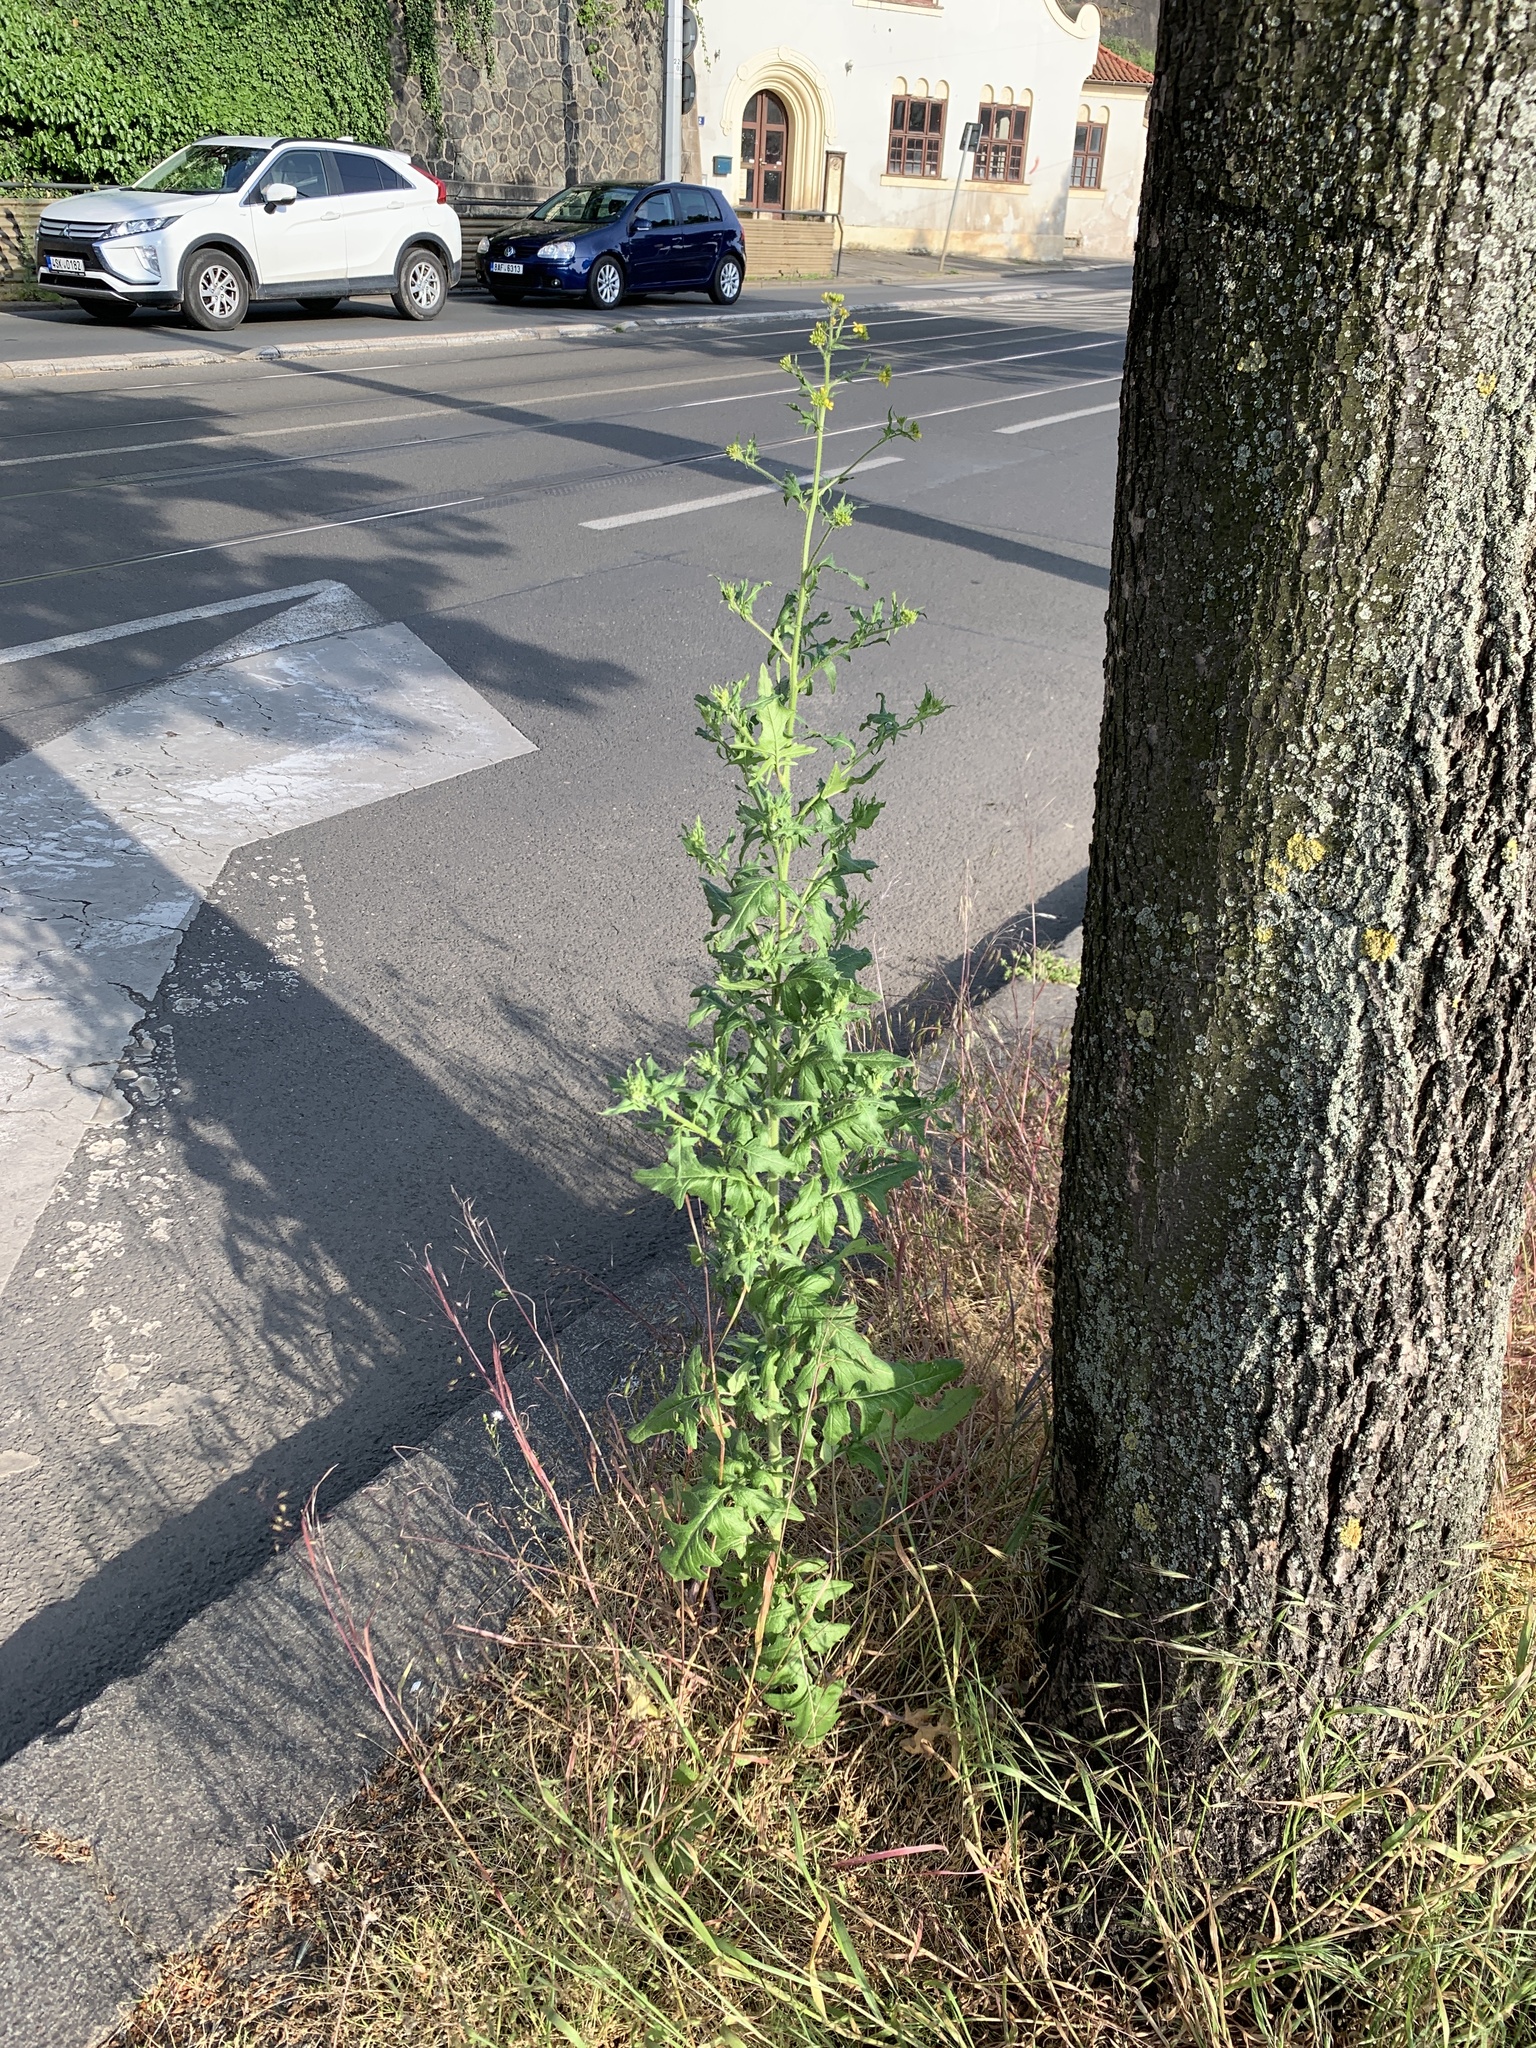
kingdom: Plantae
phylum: Tracheophyta
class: Magnoliopsida
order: Brassicales
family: Brassicaceae
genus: Sisymbrium
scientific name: Sisymbrium loeselii
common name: False london-rocket
